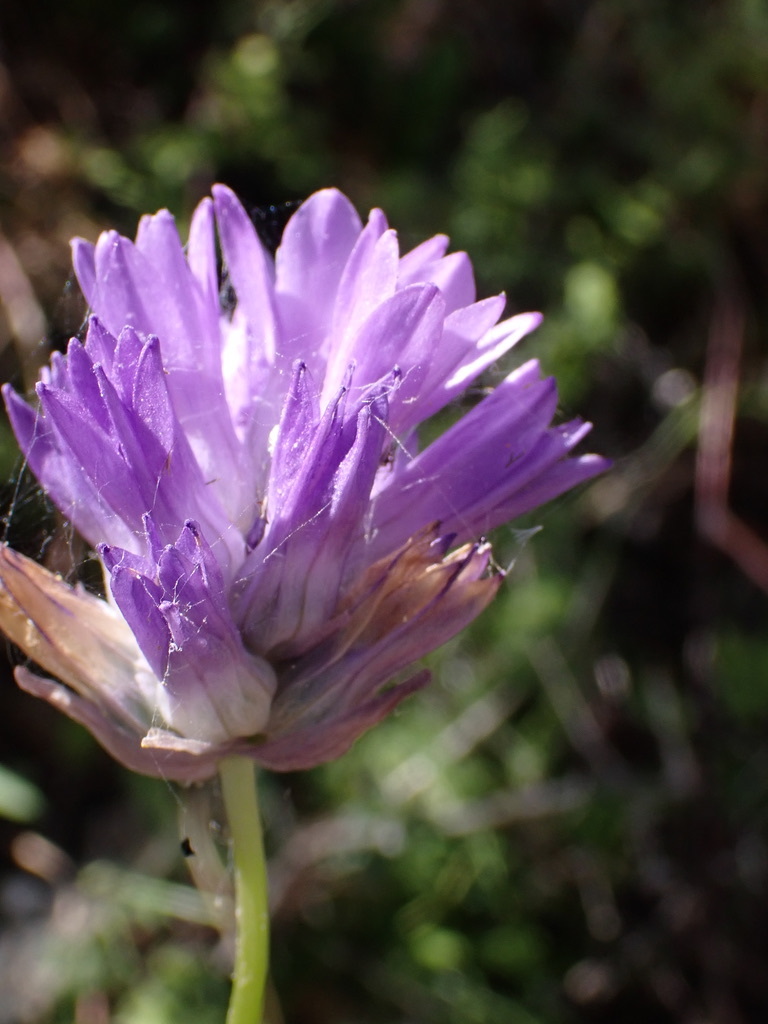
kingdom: Plantae
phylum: Tracheophyta
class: Liliopsida
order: Asparagales
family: Asparagaceae
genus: Dichelostemma
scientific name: Dichelostemma congestum
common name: Fork-tooth ookow
